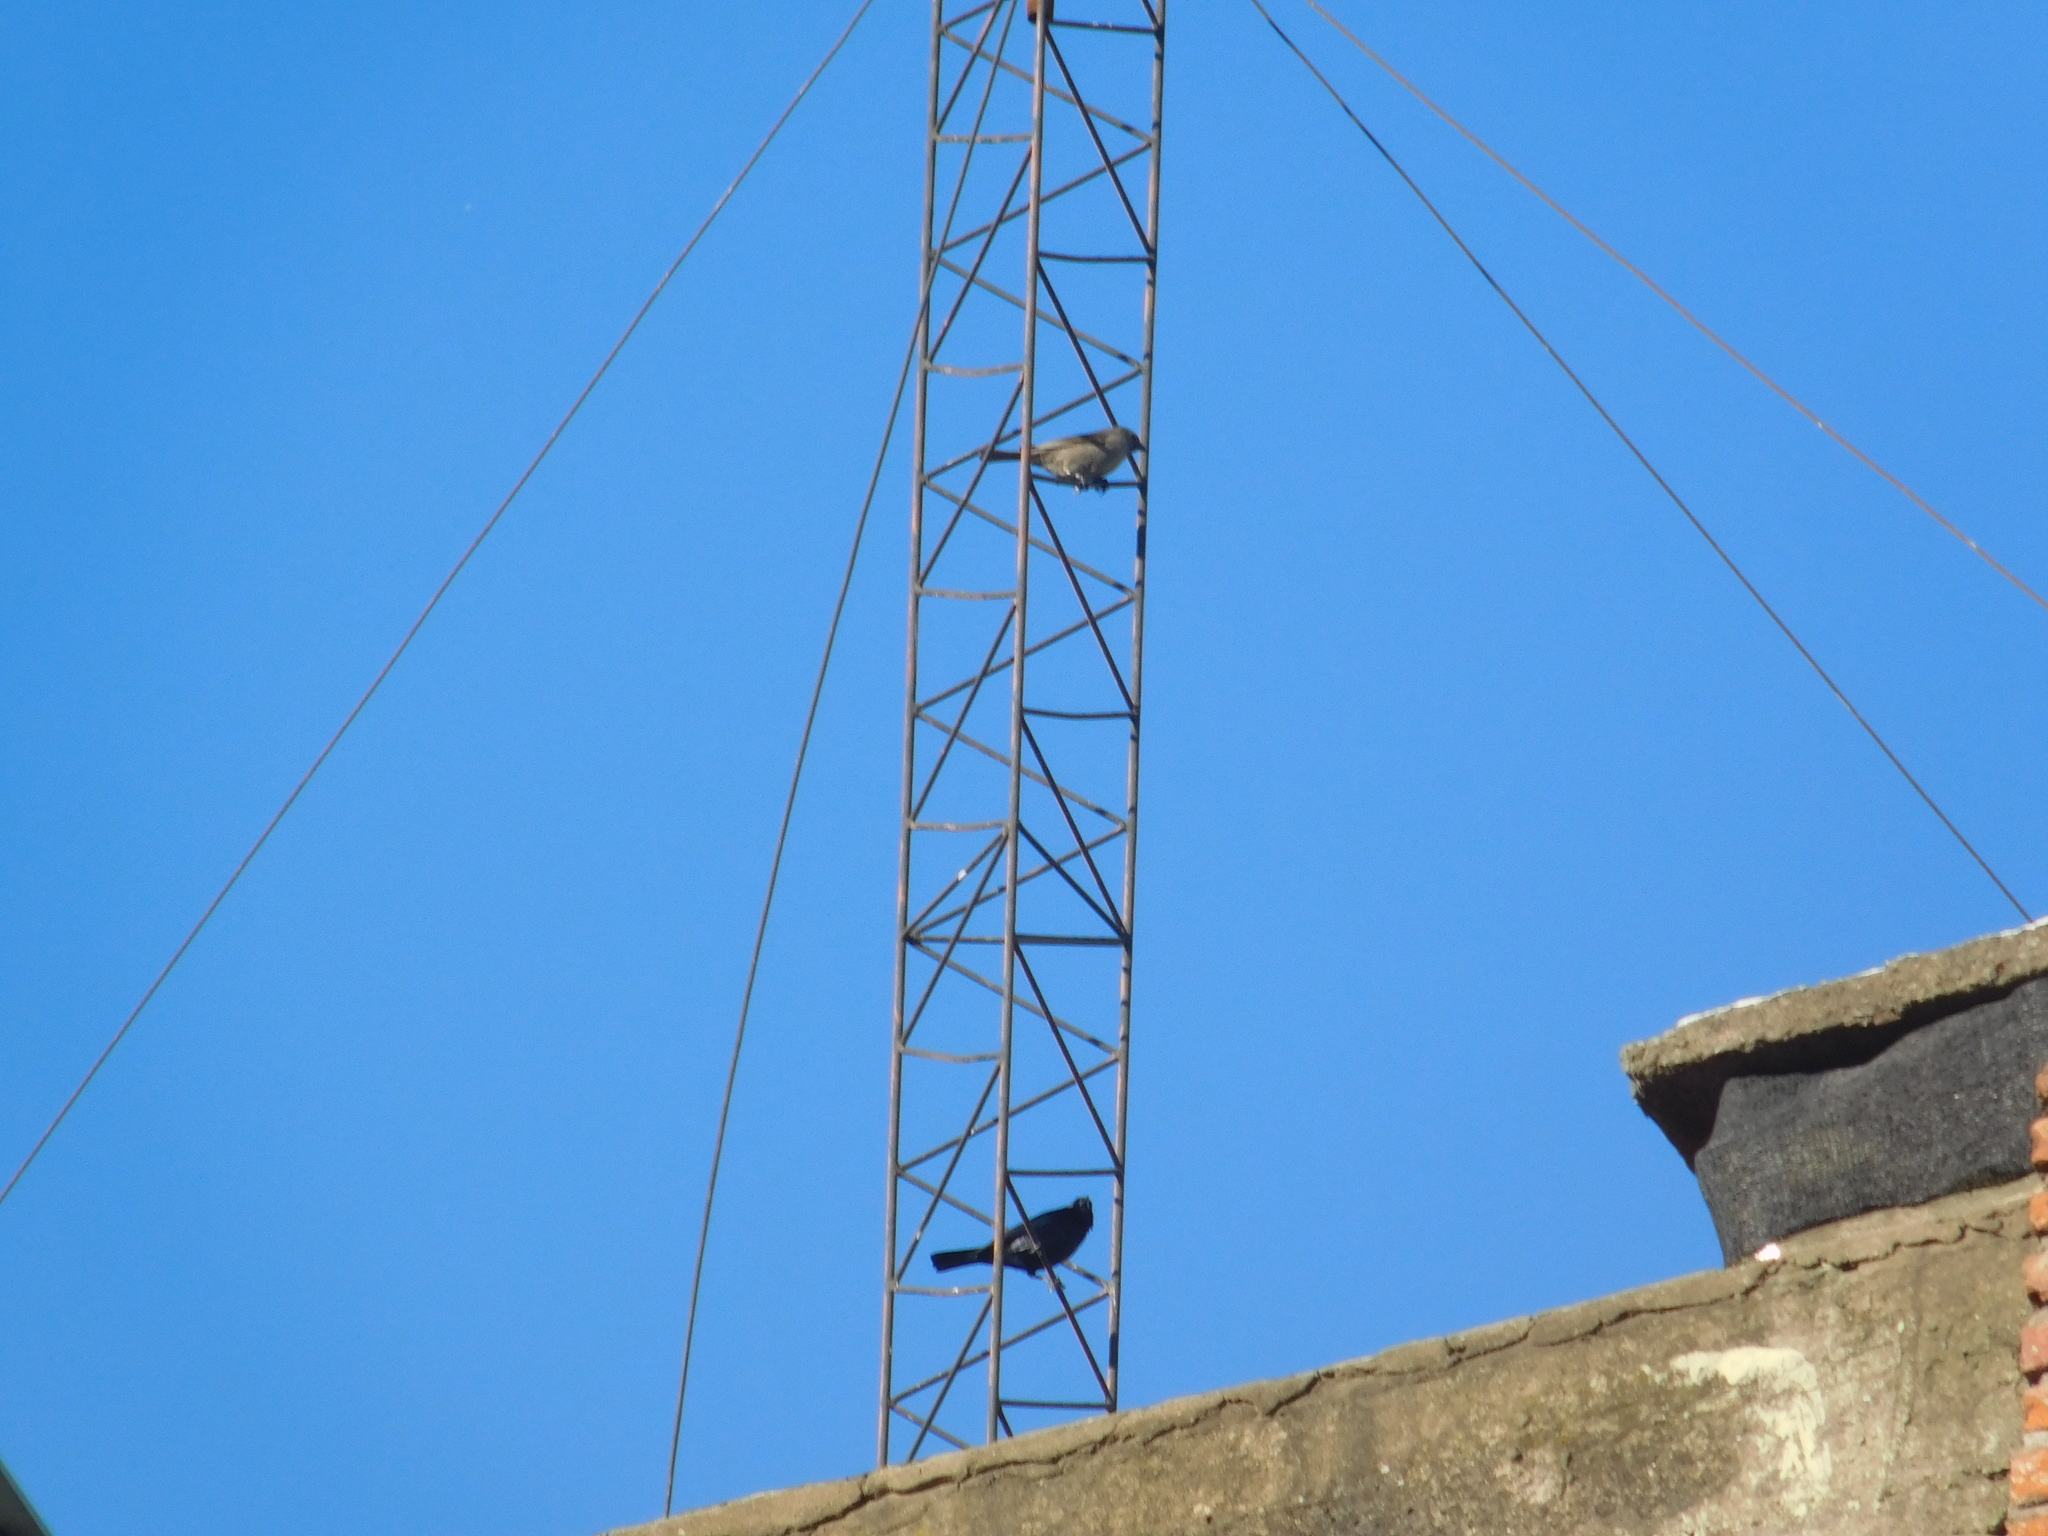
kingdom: Animalia
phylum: Chordata
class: Aves
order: Passeriformes
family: Icteridae
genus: Molothrus
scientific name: Molothrus bonariensis
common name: Shiny cowbird
